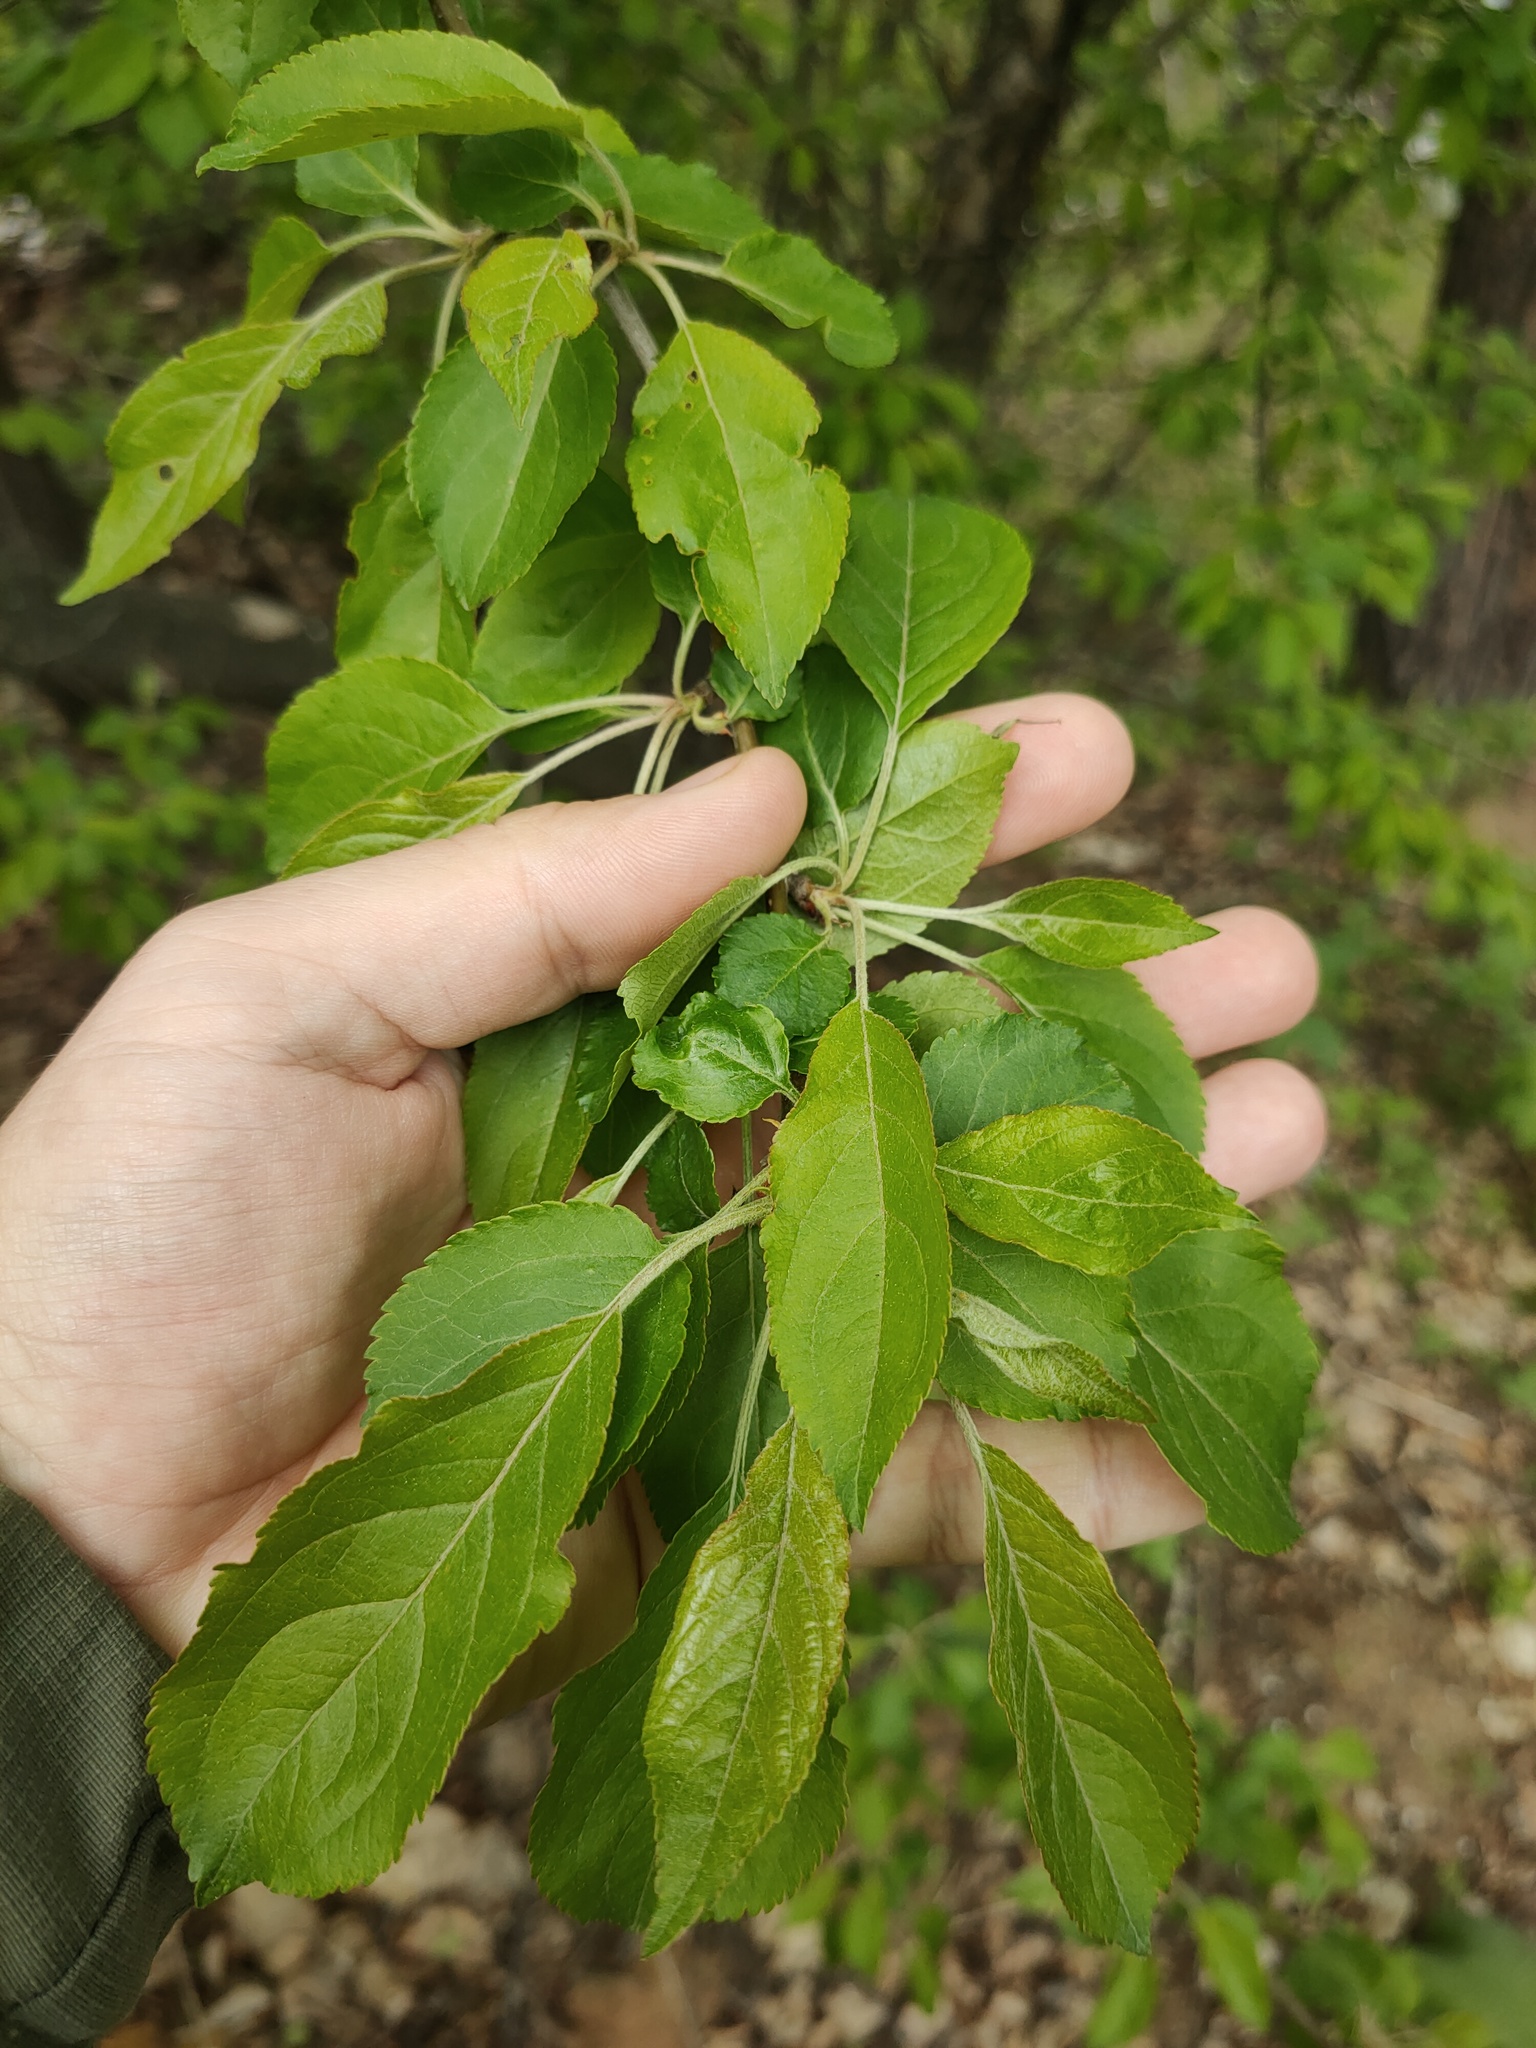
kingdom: Plantae
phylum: Tracheophyta
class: Magnoliopsida
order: Rosales
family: Rosaceae
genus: Malus
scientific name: Malus
